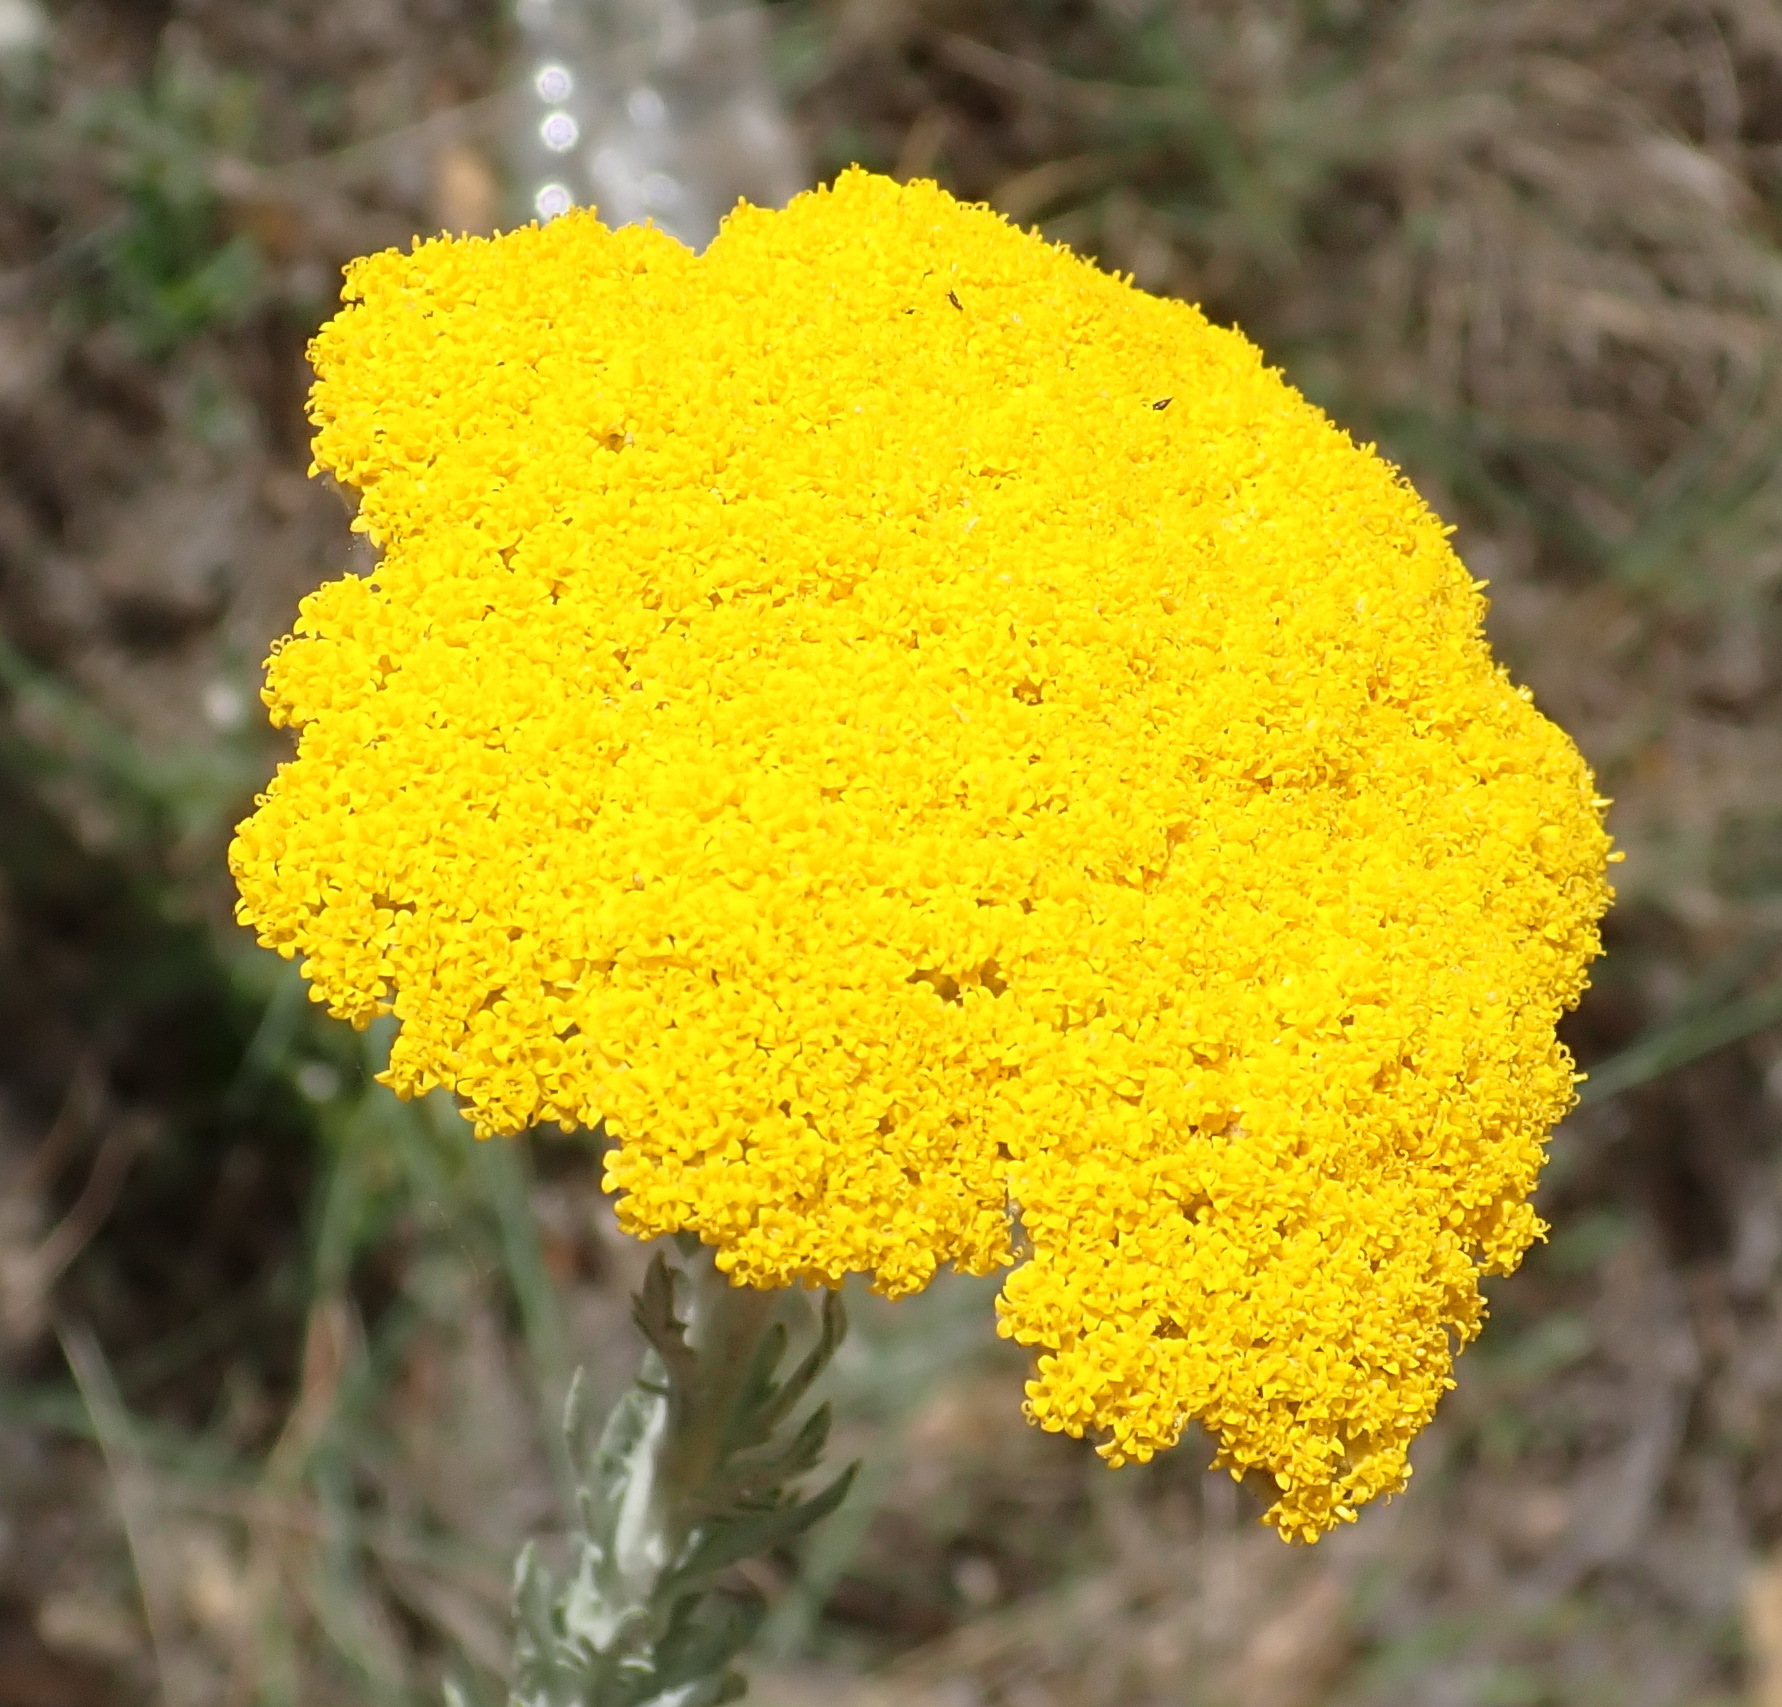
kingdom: Plantae
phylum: Tracheophyta
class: Magnoliopsida
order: Asterales
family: Asteraceae
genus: Athanasia
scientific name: Athanasia pinnata
